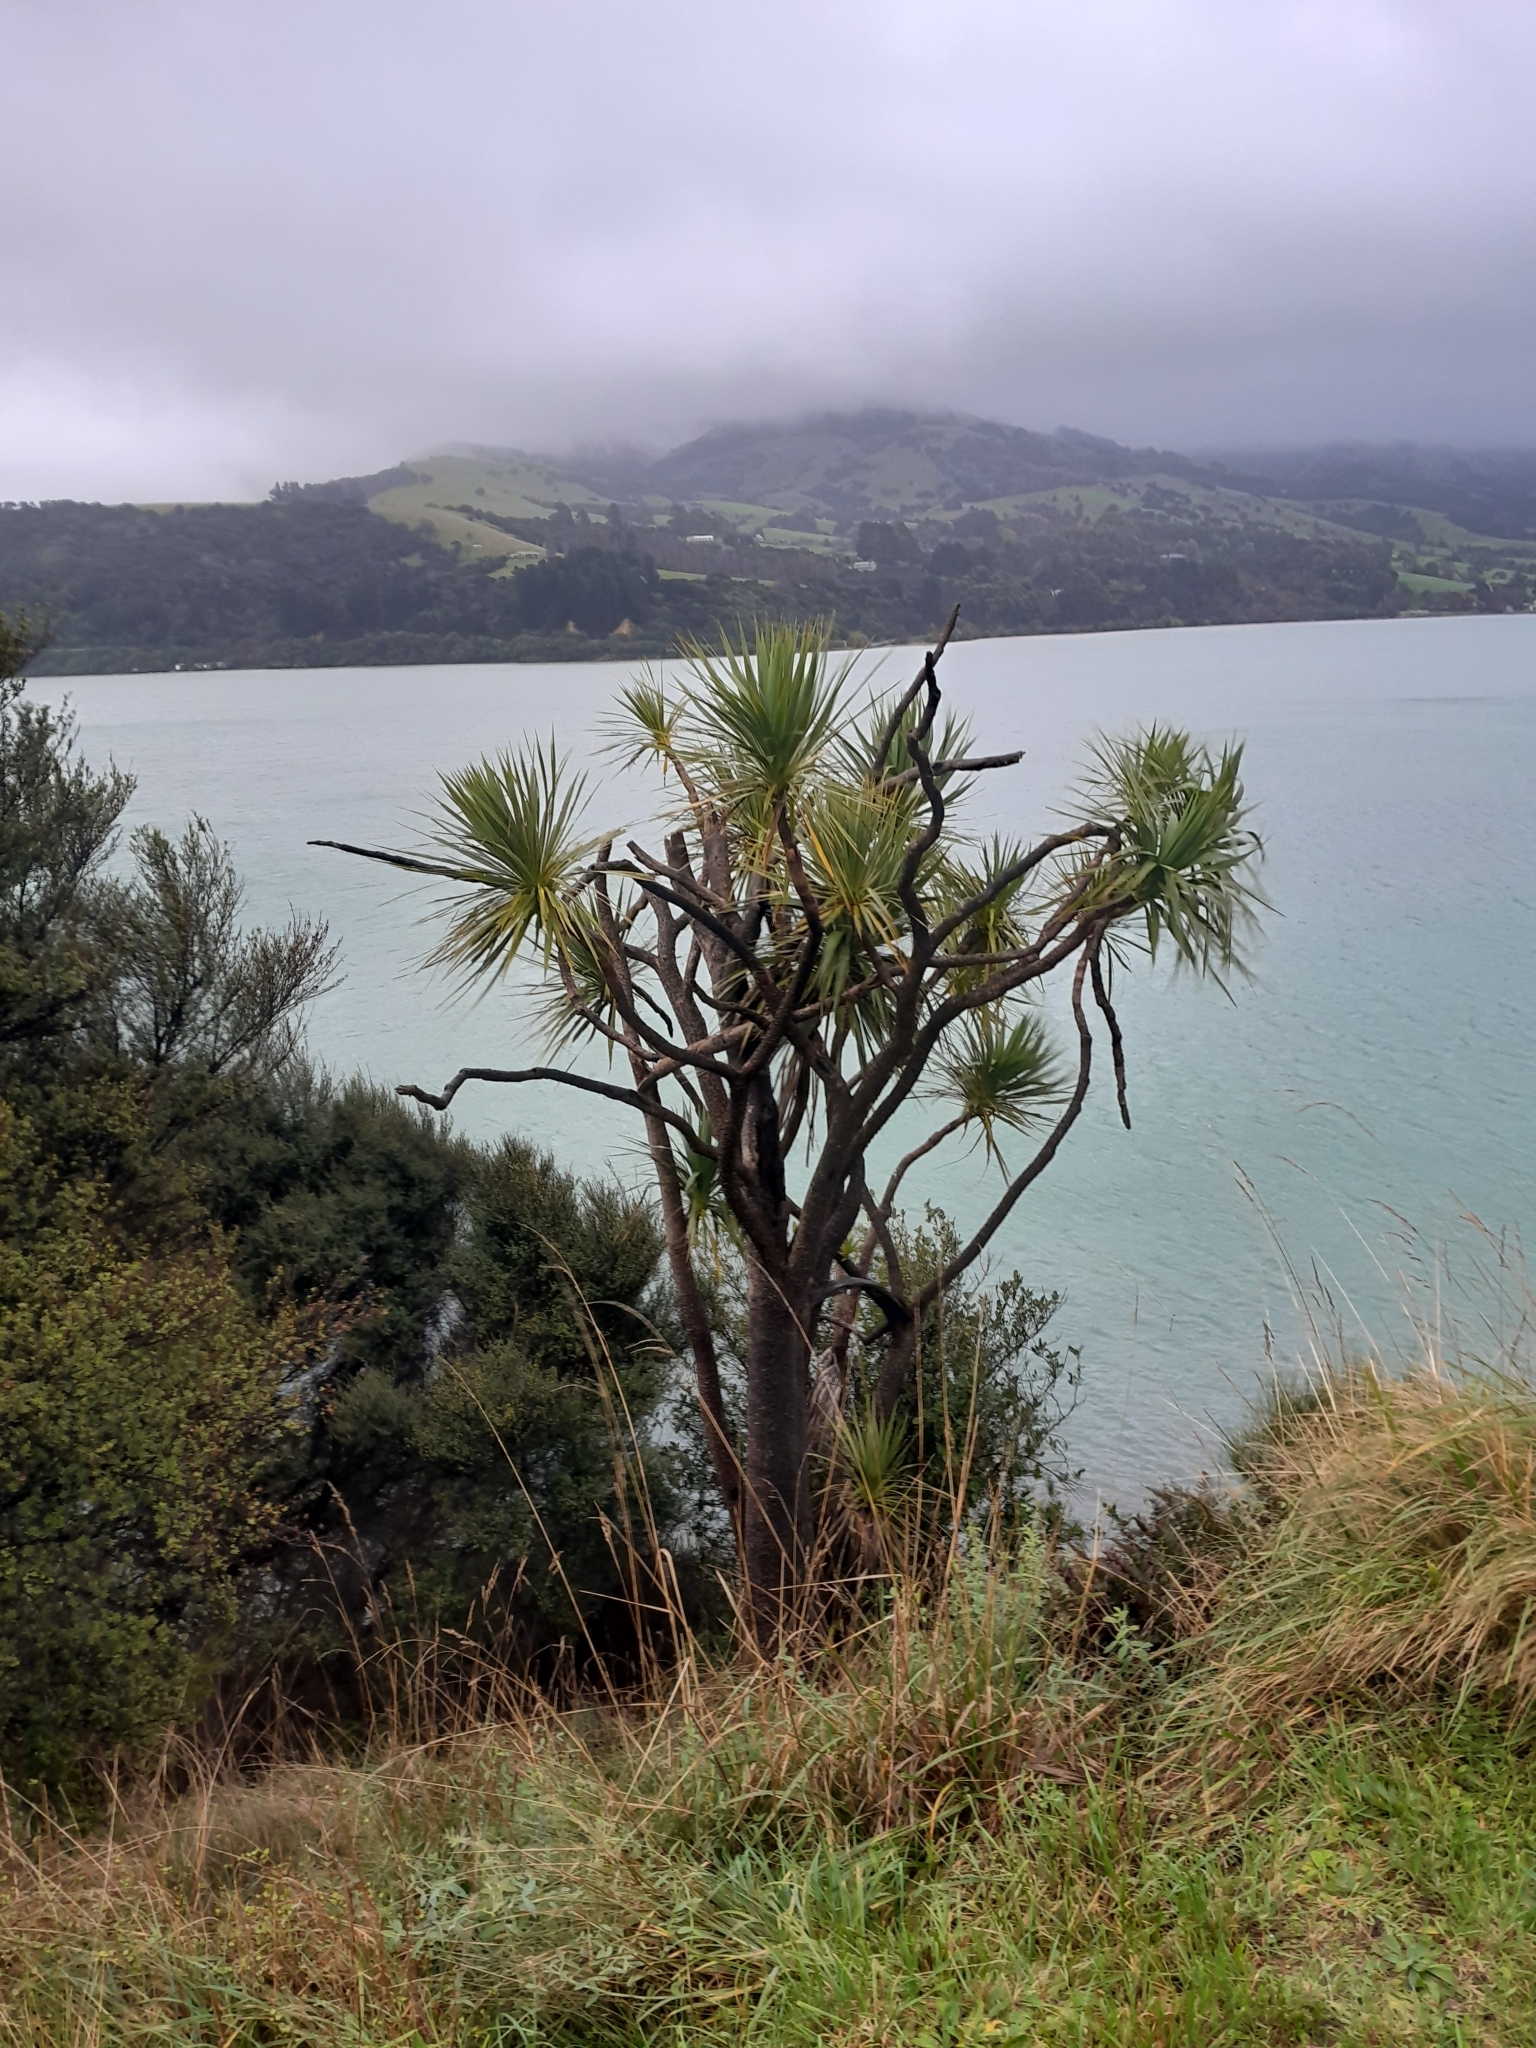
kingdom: Plantae
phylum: Tracheophyta
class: Liliopsida
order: Asparagales
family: Asparagaceae
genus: Cordyline
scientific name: Cordyline australis
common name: Cabbage-palm
